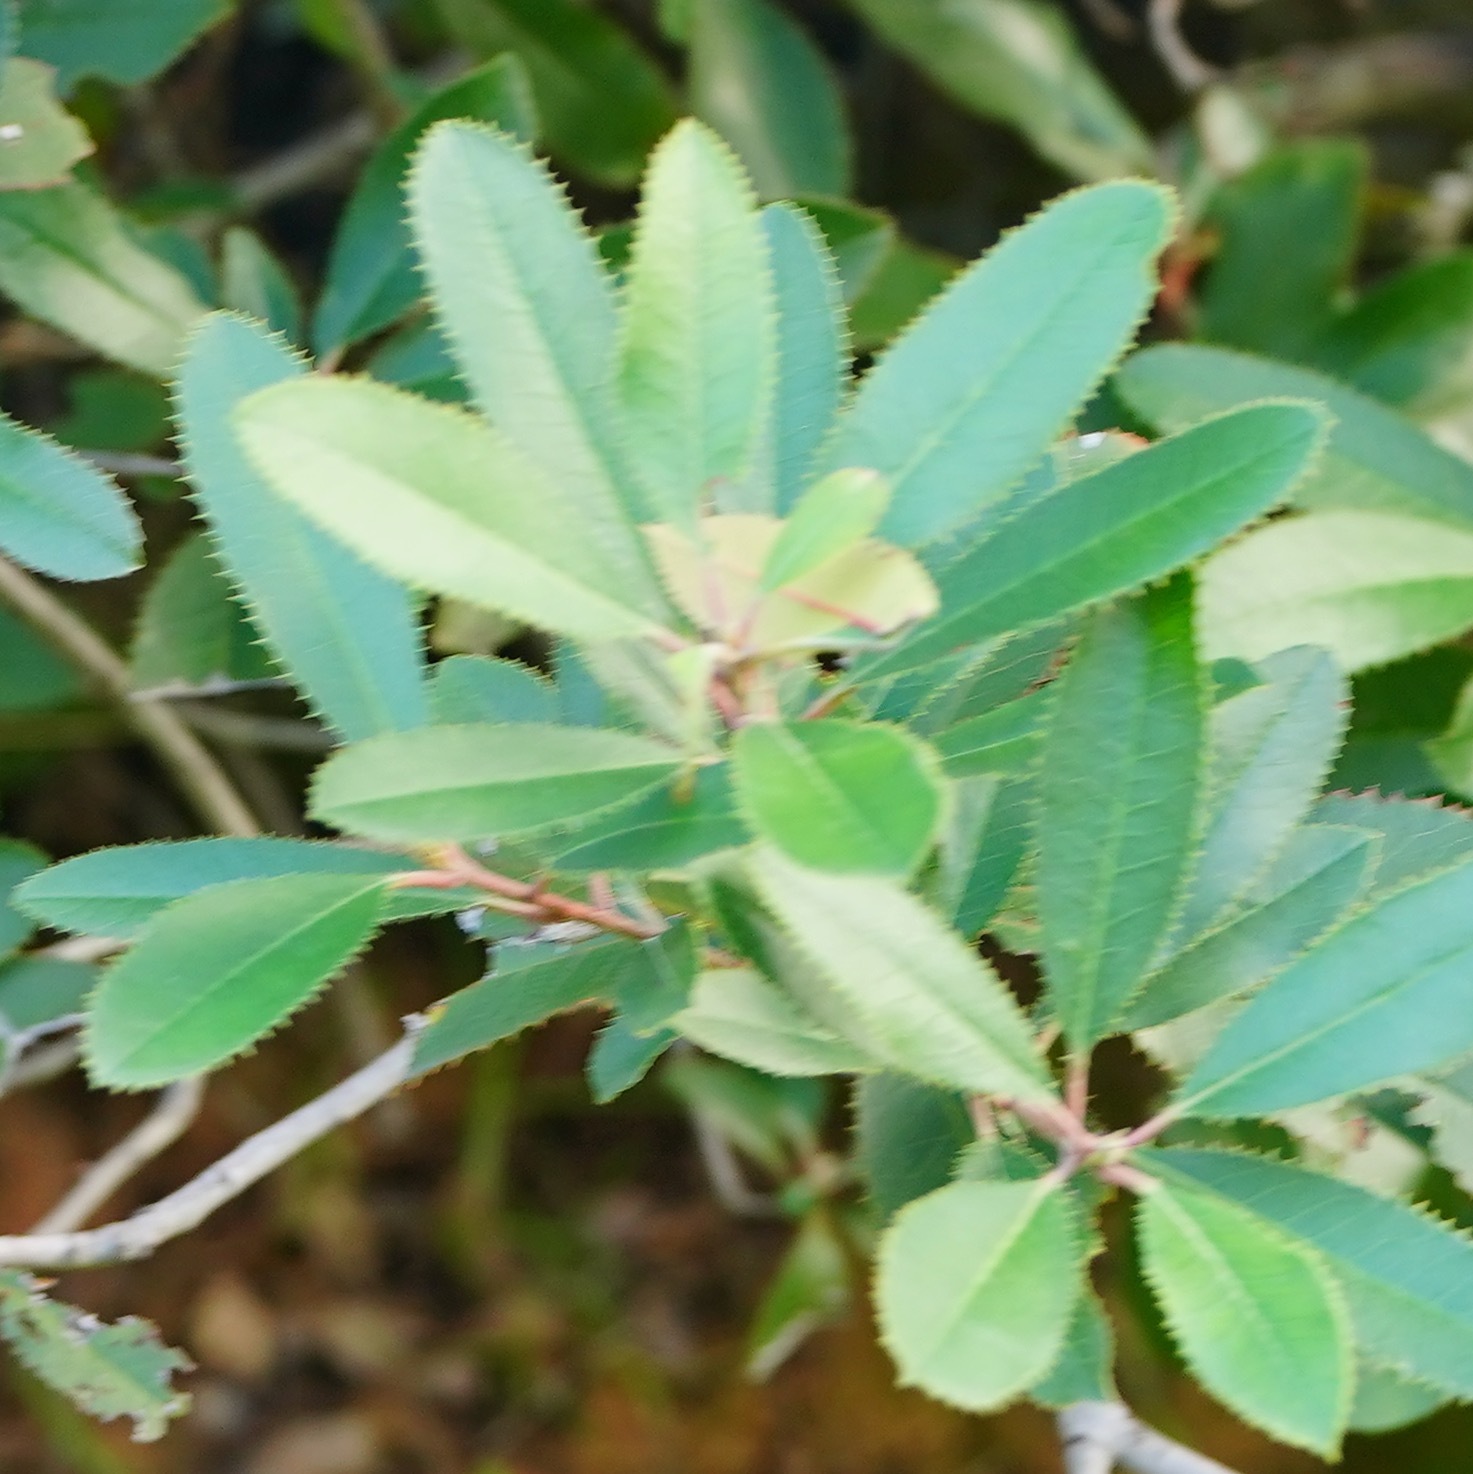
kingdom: Plantae
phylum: Tracheophyta
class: Magnoliopsida
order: Rosales
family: Rosaceae
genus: Heteromeles
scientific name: Heteromeles arbutifolia
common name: California-holly
